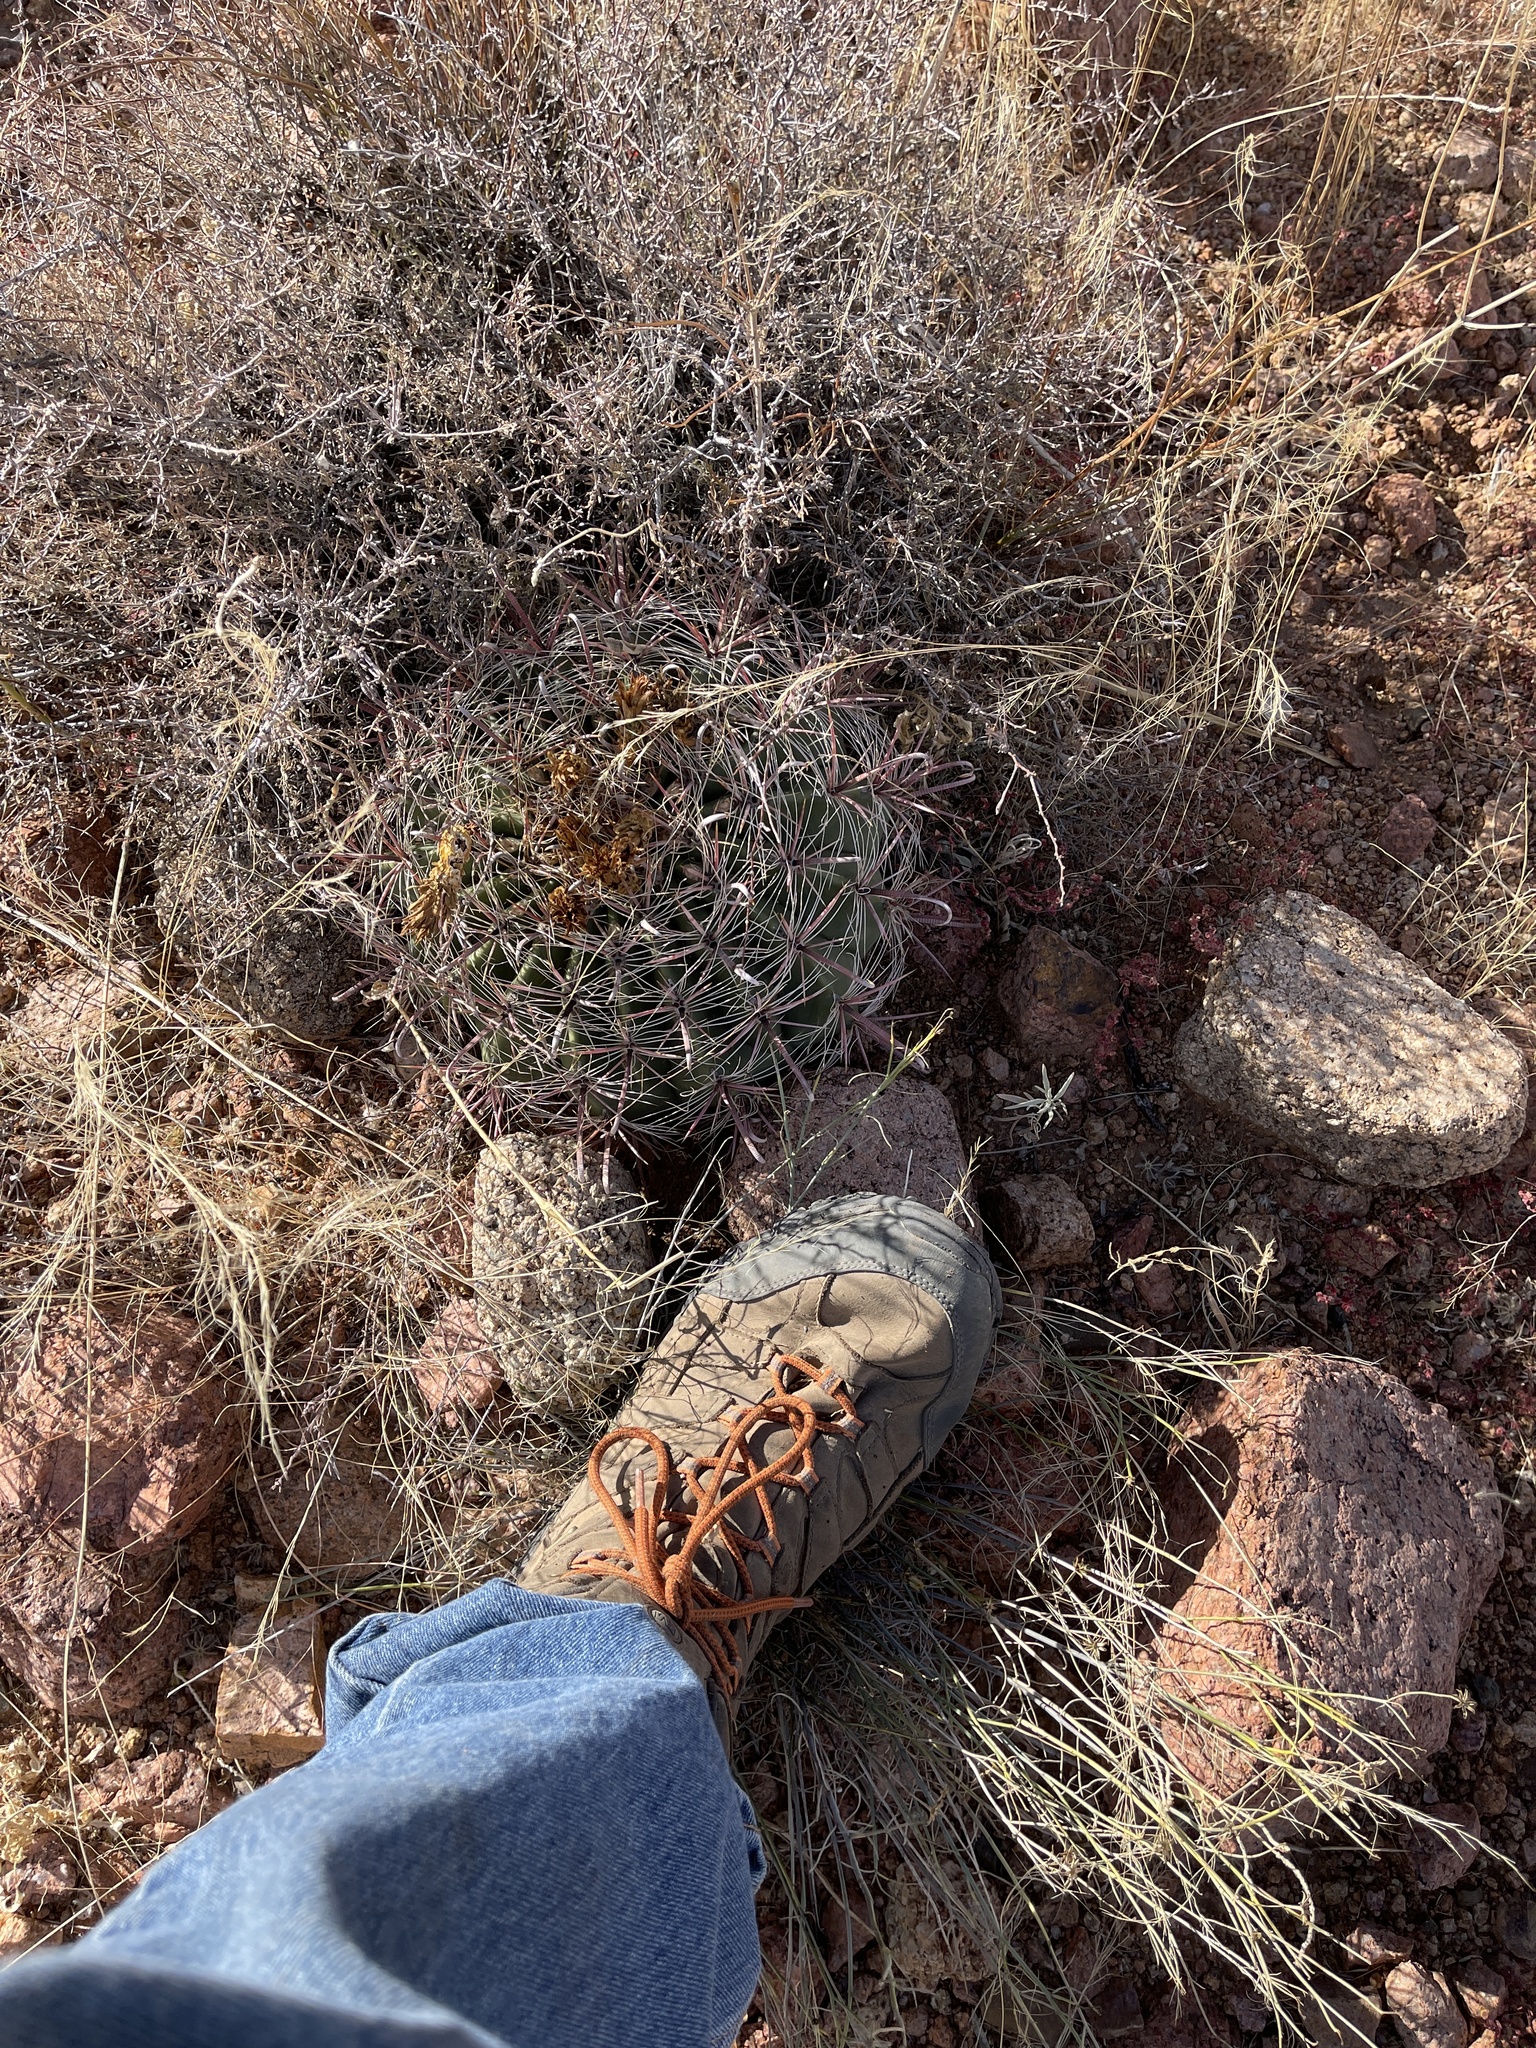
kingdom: Plantae
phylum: Tracheophyta
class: Magnoliopsida
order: Caryophyllales
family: Cactaceae
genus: Ferocactus
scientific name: Ferocactus wislizeni
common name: Candy barrel cactus
